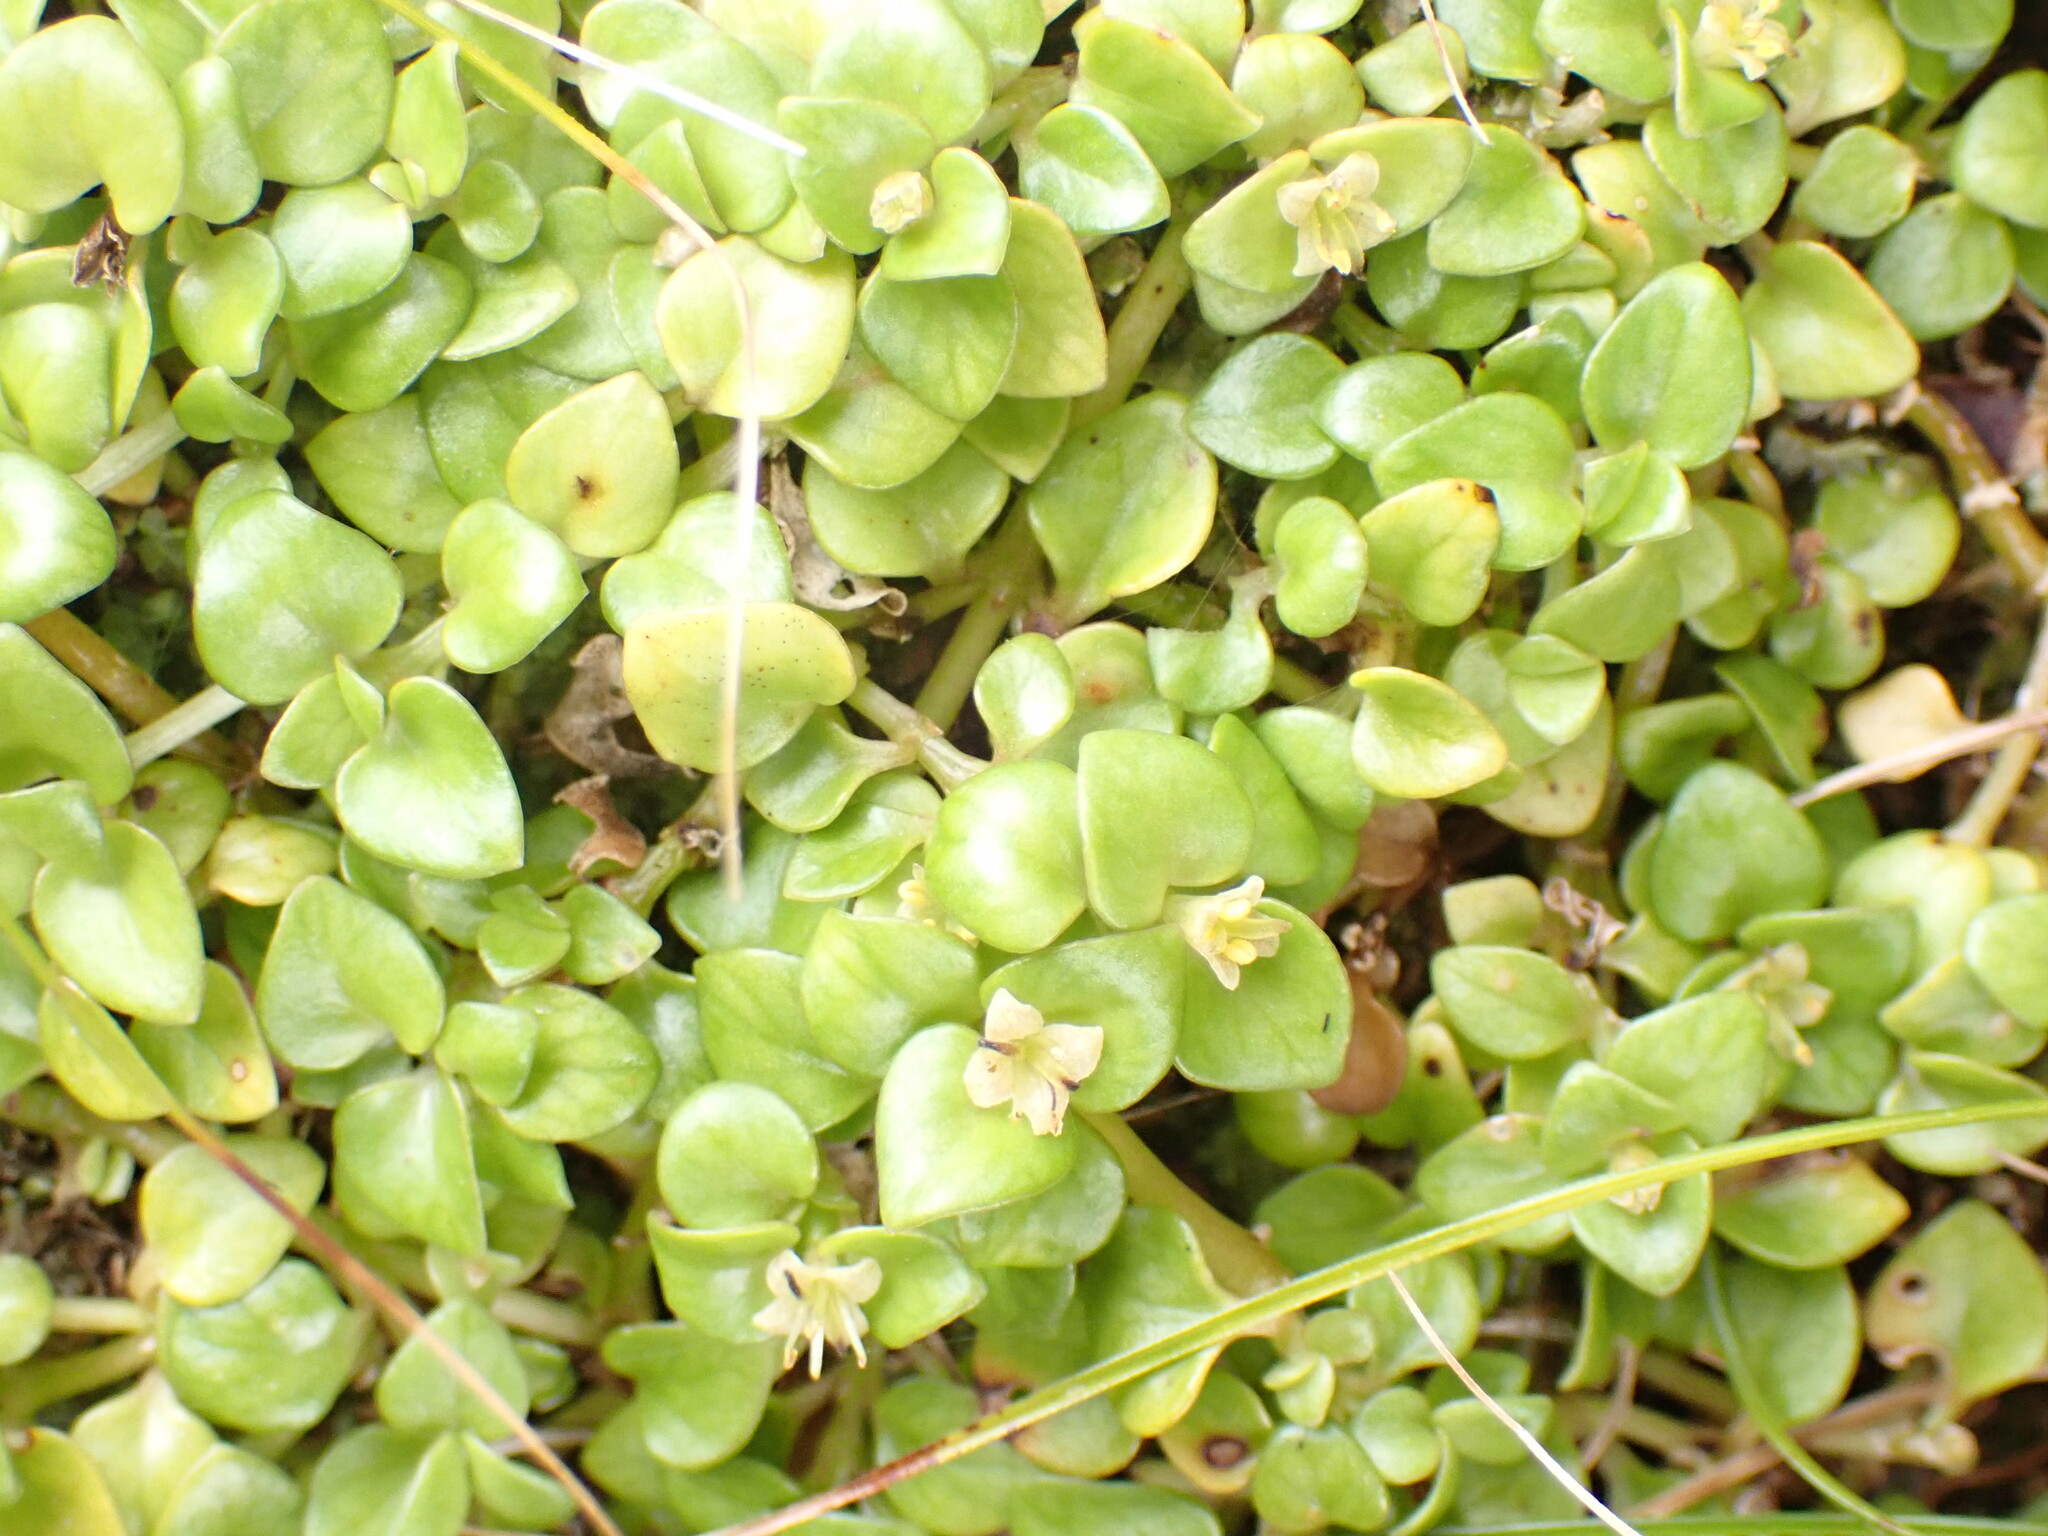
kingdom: Plantae
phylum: Tracheophyta
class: Magnoliopsida
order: Gentianales
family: Rubiaceae
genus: Nertera
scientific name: Nertera granadensis
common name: Beadplant
